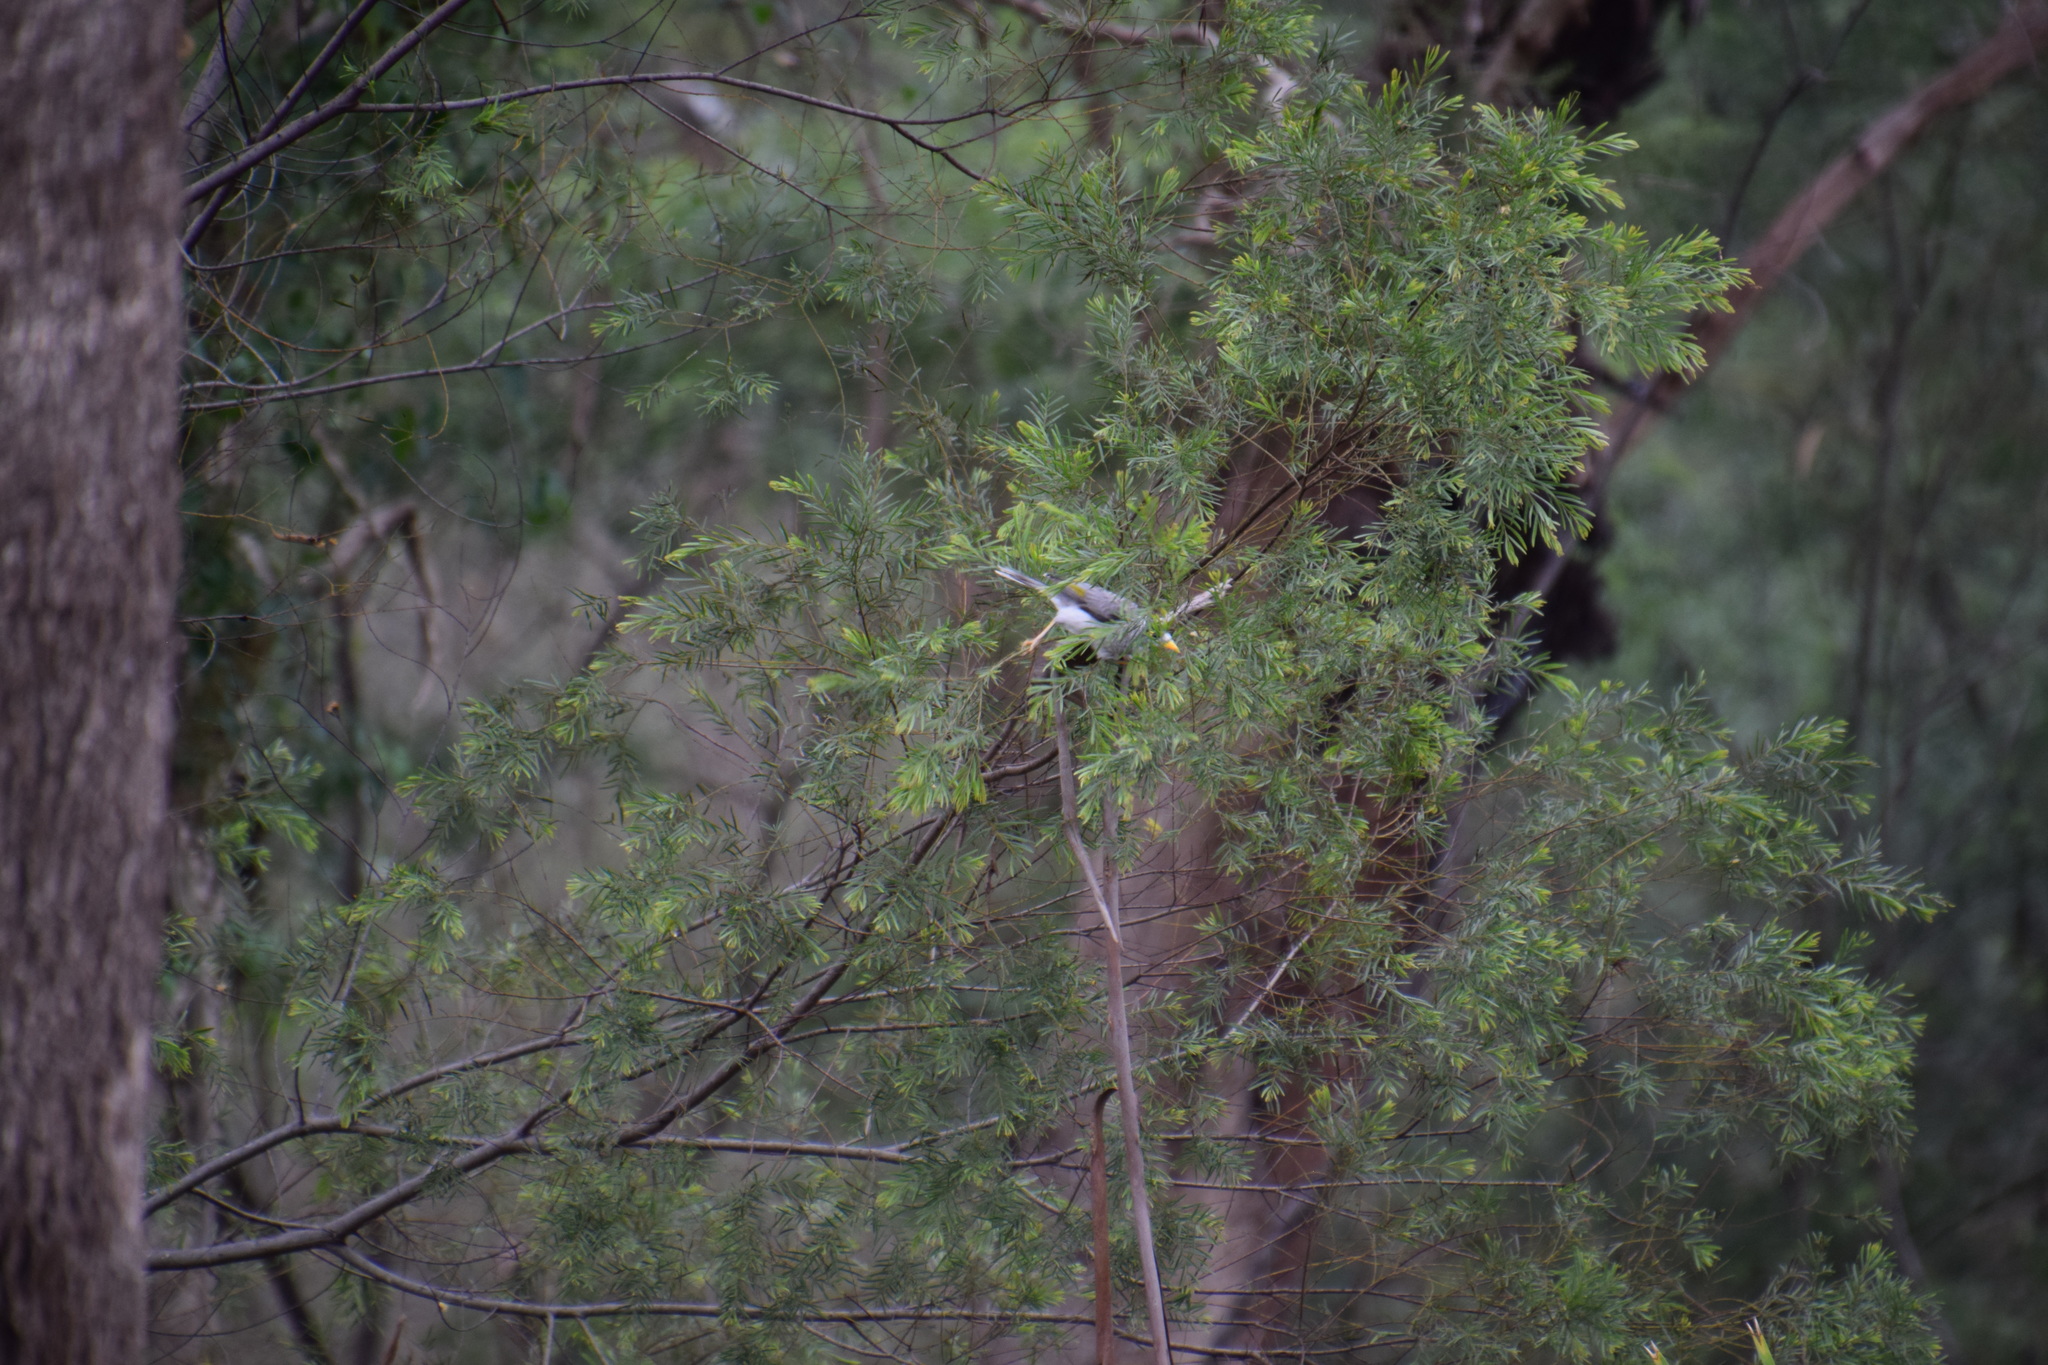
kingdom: Animalia
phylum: Chordata
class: Aves
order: Passeriformes
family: Meliphagidae
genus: Manorina
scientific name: Manorina melanocephala
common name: Noisy miner
